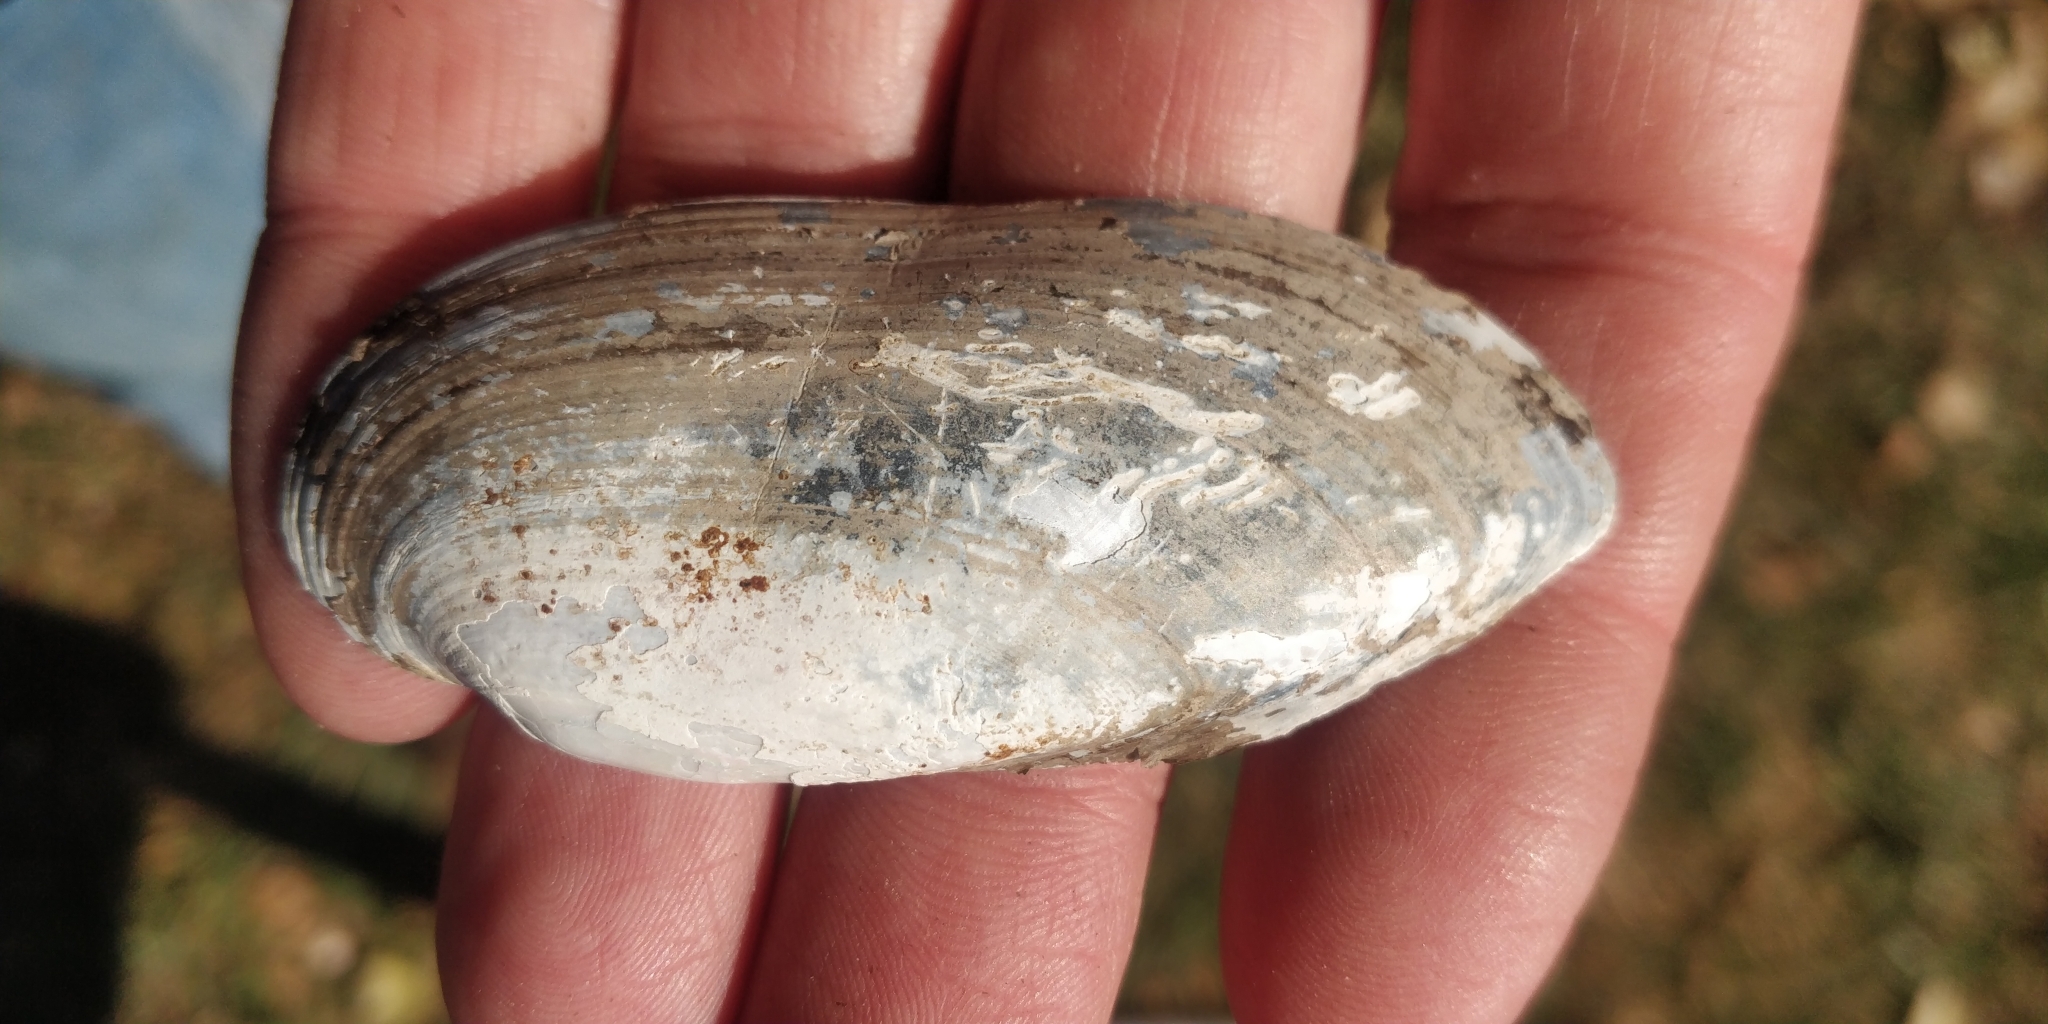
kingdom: Animalia
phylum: Mollusca
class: Bivalvia
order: Unionida
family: Unionidae
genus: Lampsilis
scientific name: Lampsilis teres
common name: Yellow sandshell
